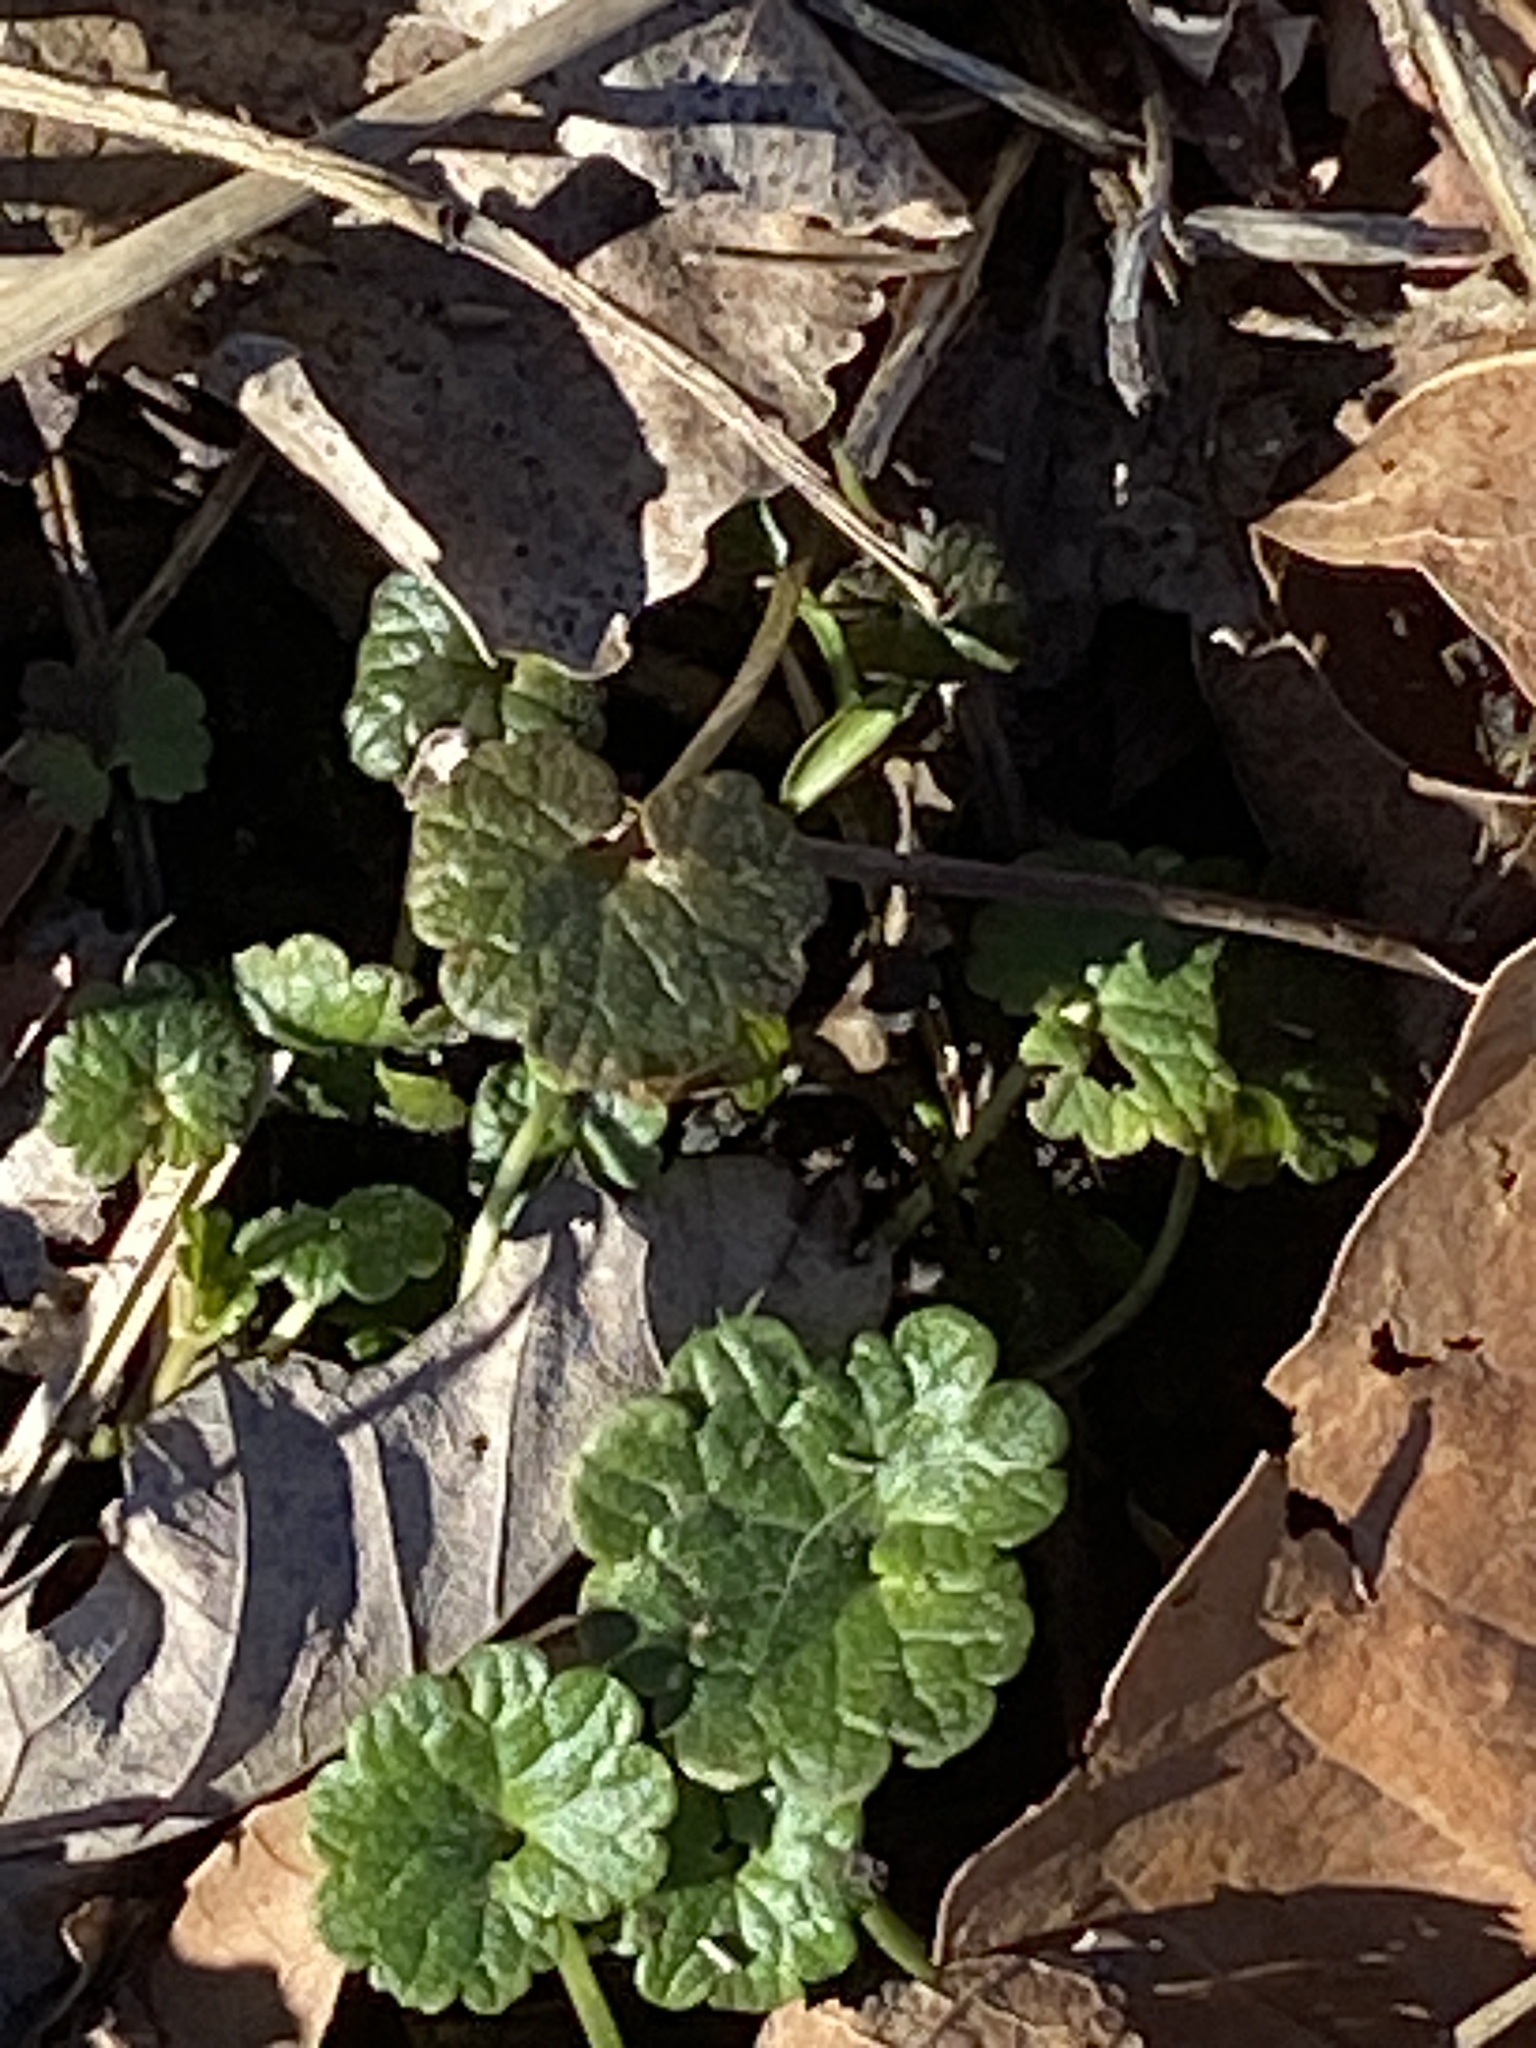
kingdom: Plantae
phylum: Tracheophyta
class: Magnoliopsida
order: Lamiales
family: Lamiaceae
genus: Glechoma
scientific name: Glechoma hederacea
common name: Ground ivy
